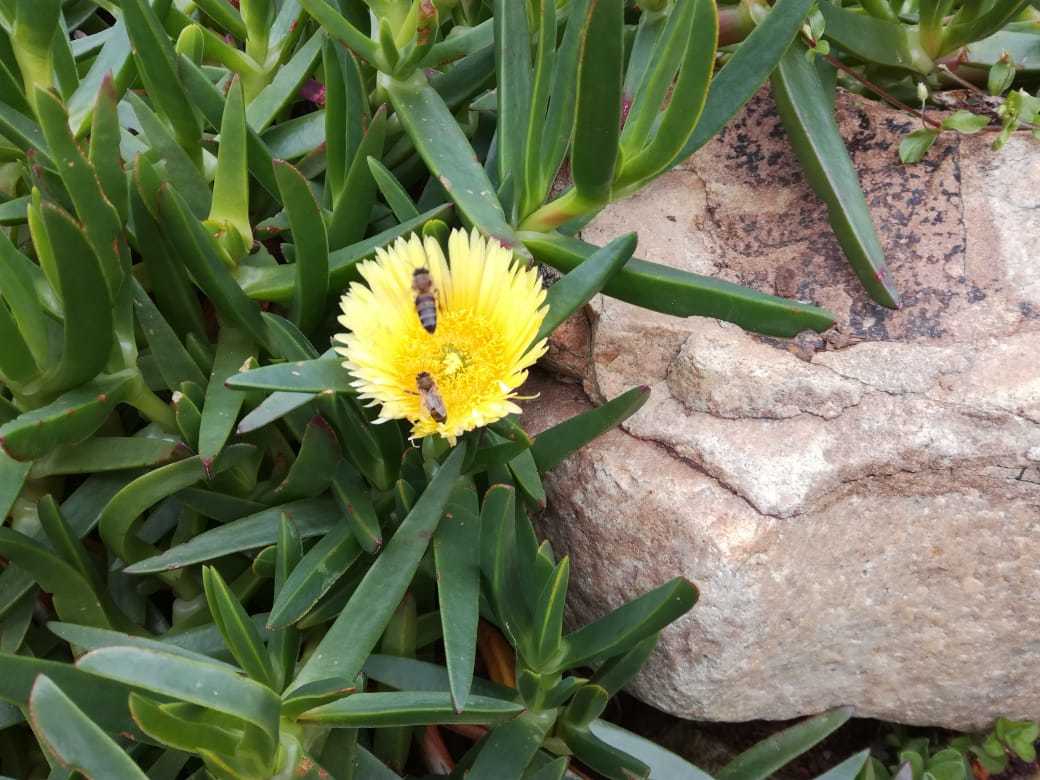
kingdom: Animalia
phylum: Arthropoda
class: Insecta
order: Hymenoptera
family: Apidae
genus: Apis
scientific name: Apis mellifera
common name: Honey bee
